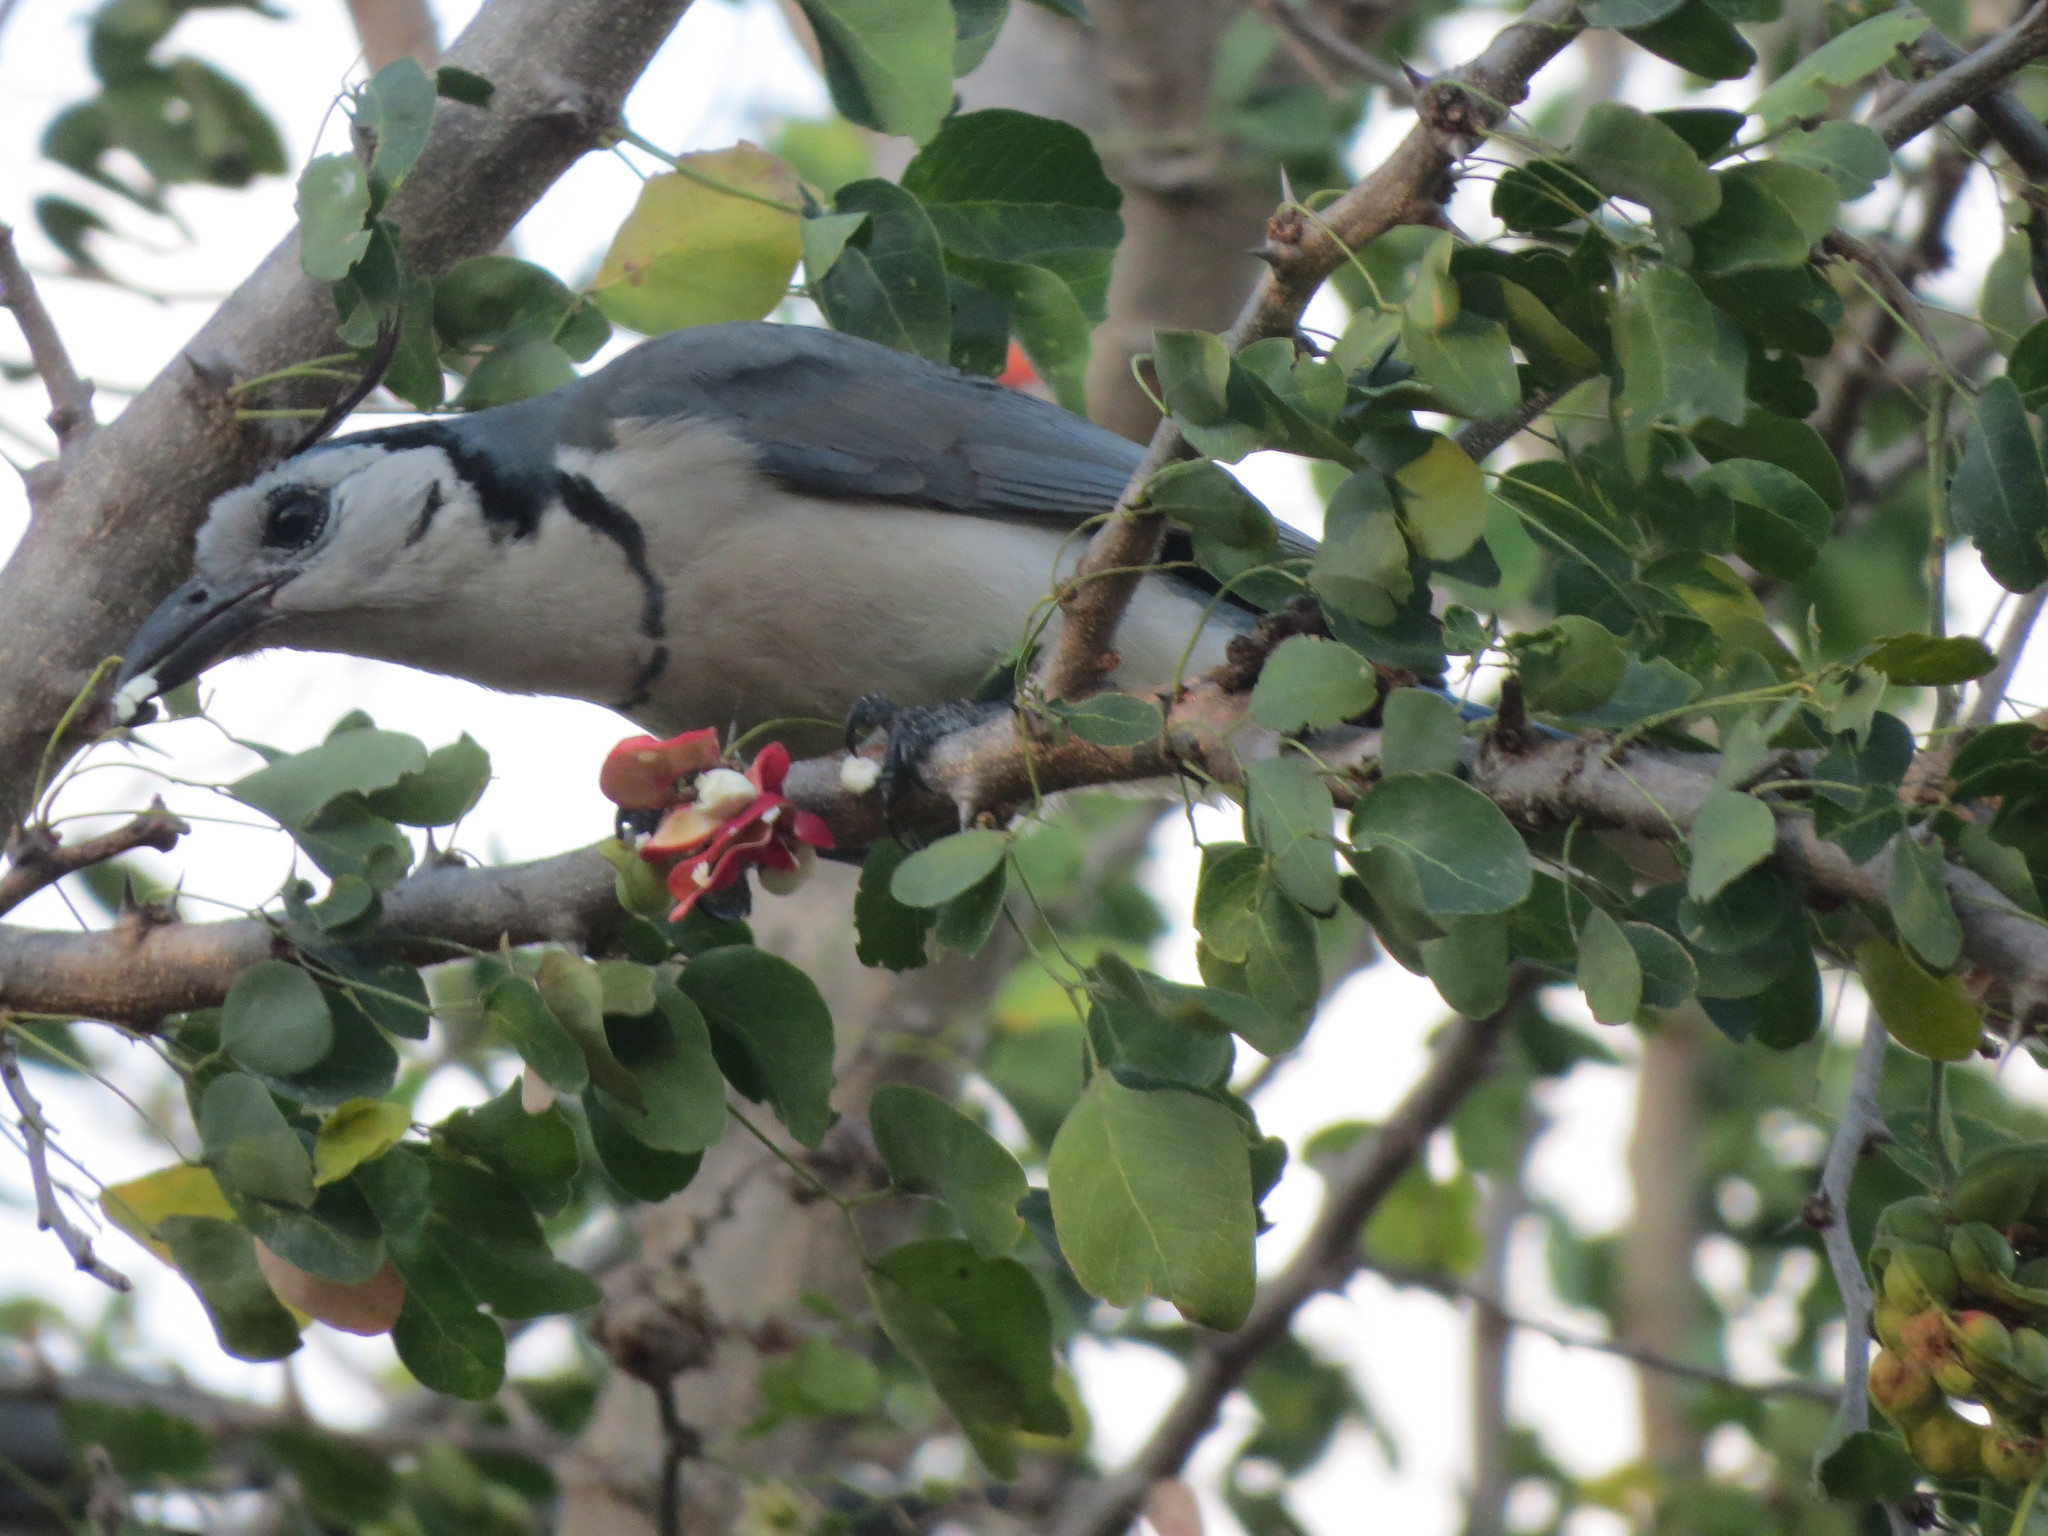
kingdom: Animalia
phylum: Chordata
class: Aves
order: Passeriformes
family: Corvidae
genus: Calocitta
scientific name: Calocitta formosa
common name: White-throated magpie-jay
